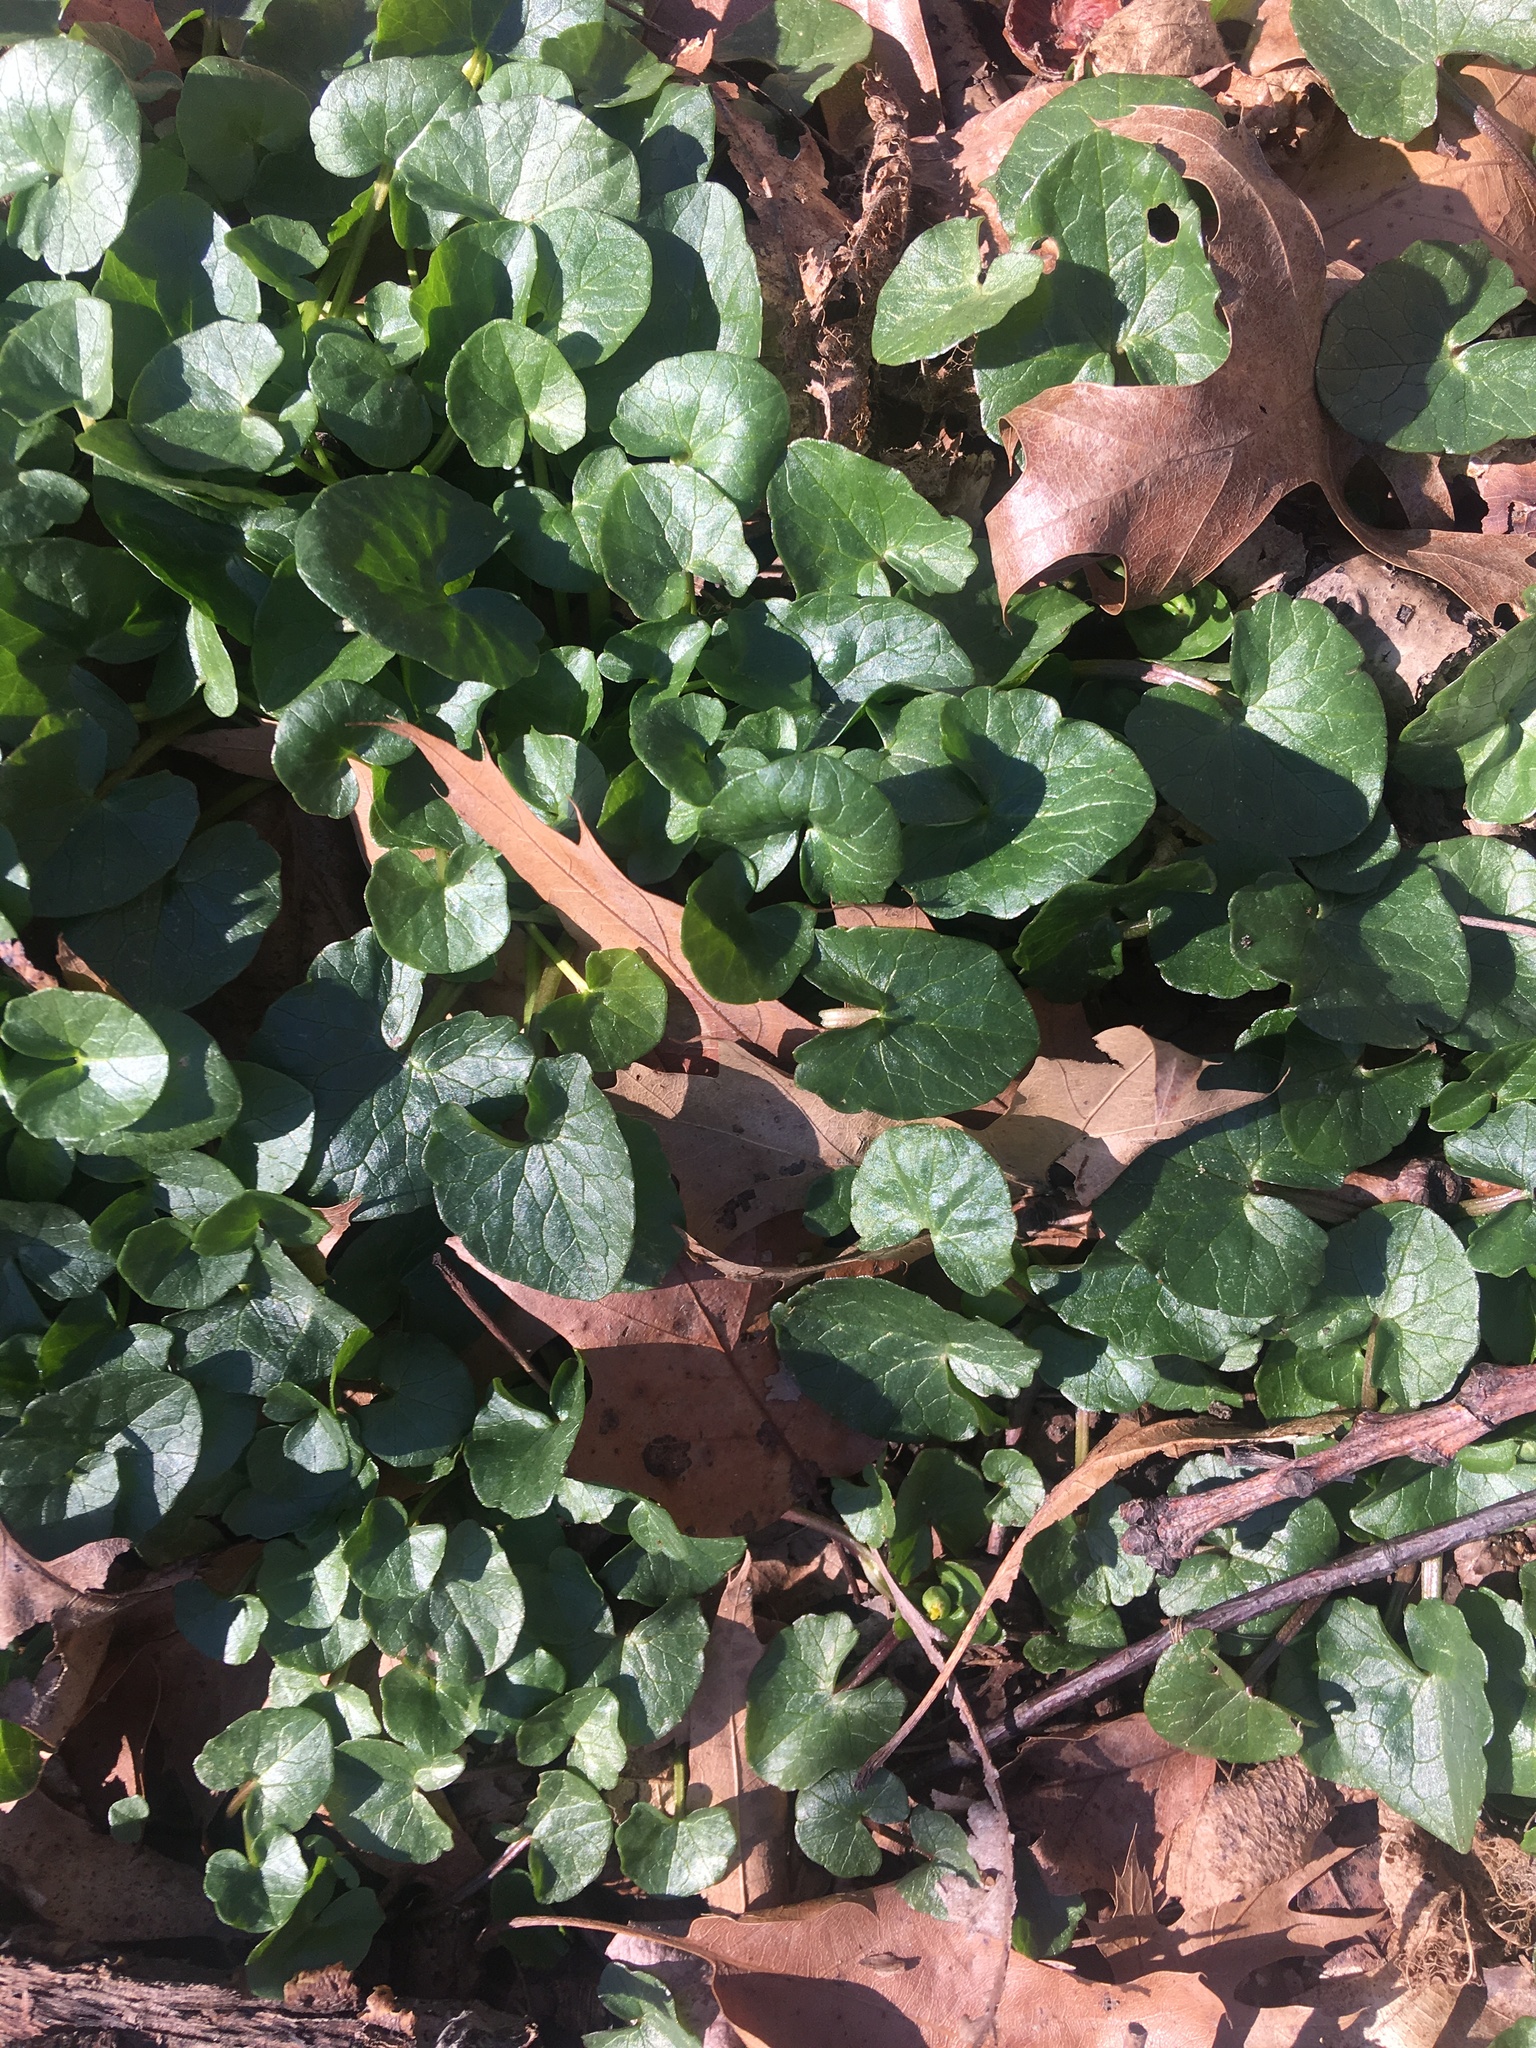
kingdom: Plantae
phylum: Tracheophyta
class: Magnoliopsida
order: Ranunculales
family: Ranunculaceae
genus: Ficaria
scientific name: Ficaria verna
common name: Lesser celandine
